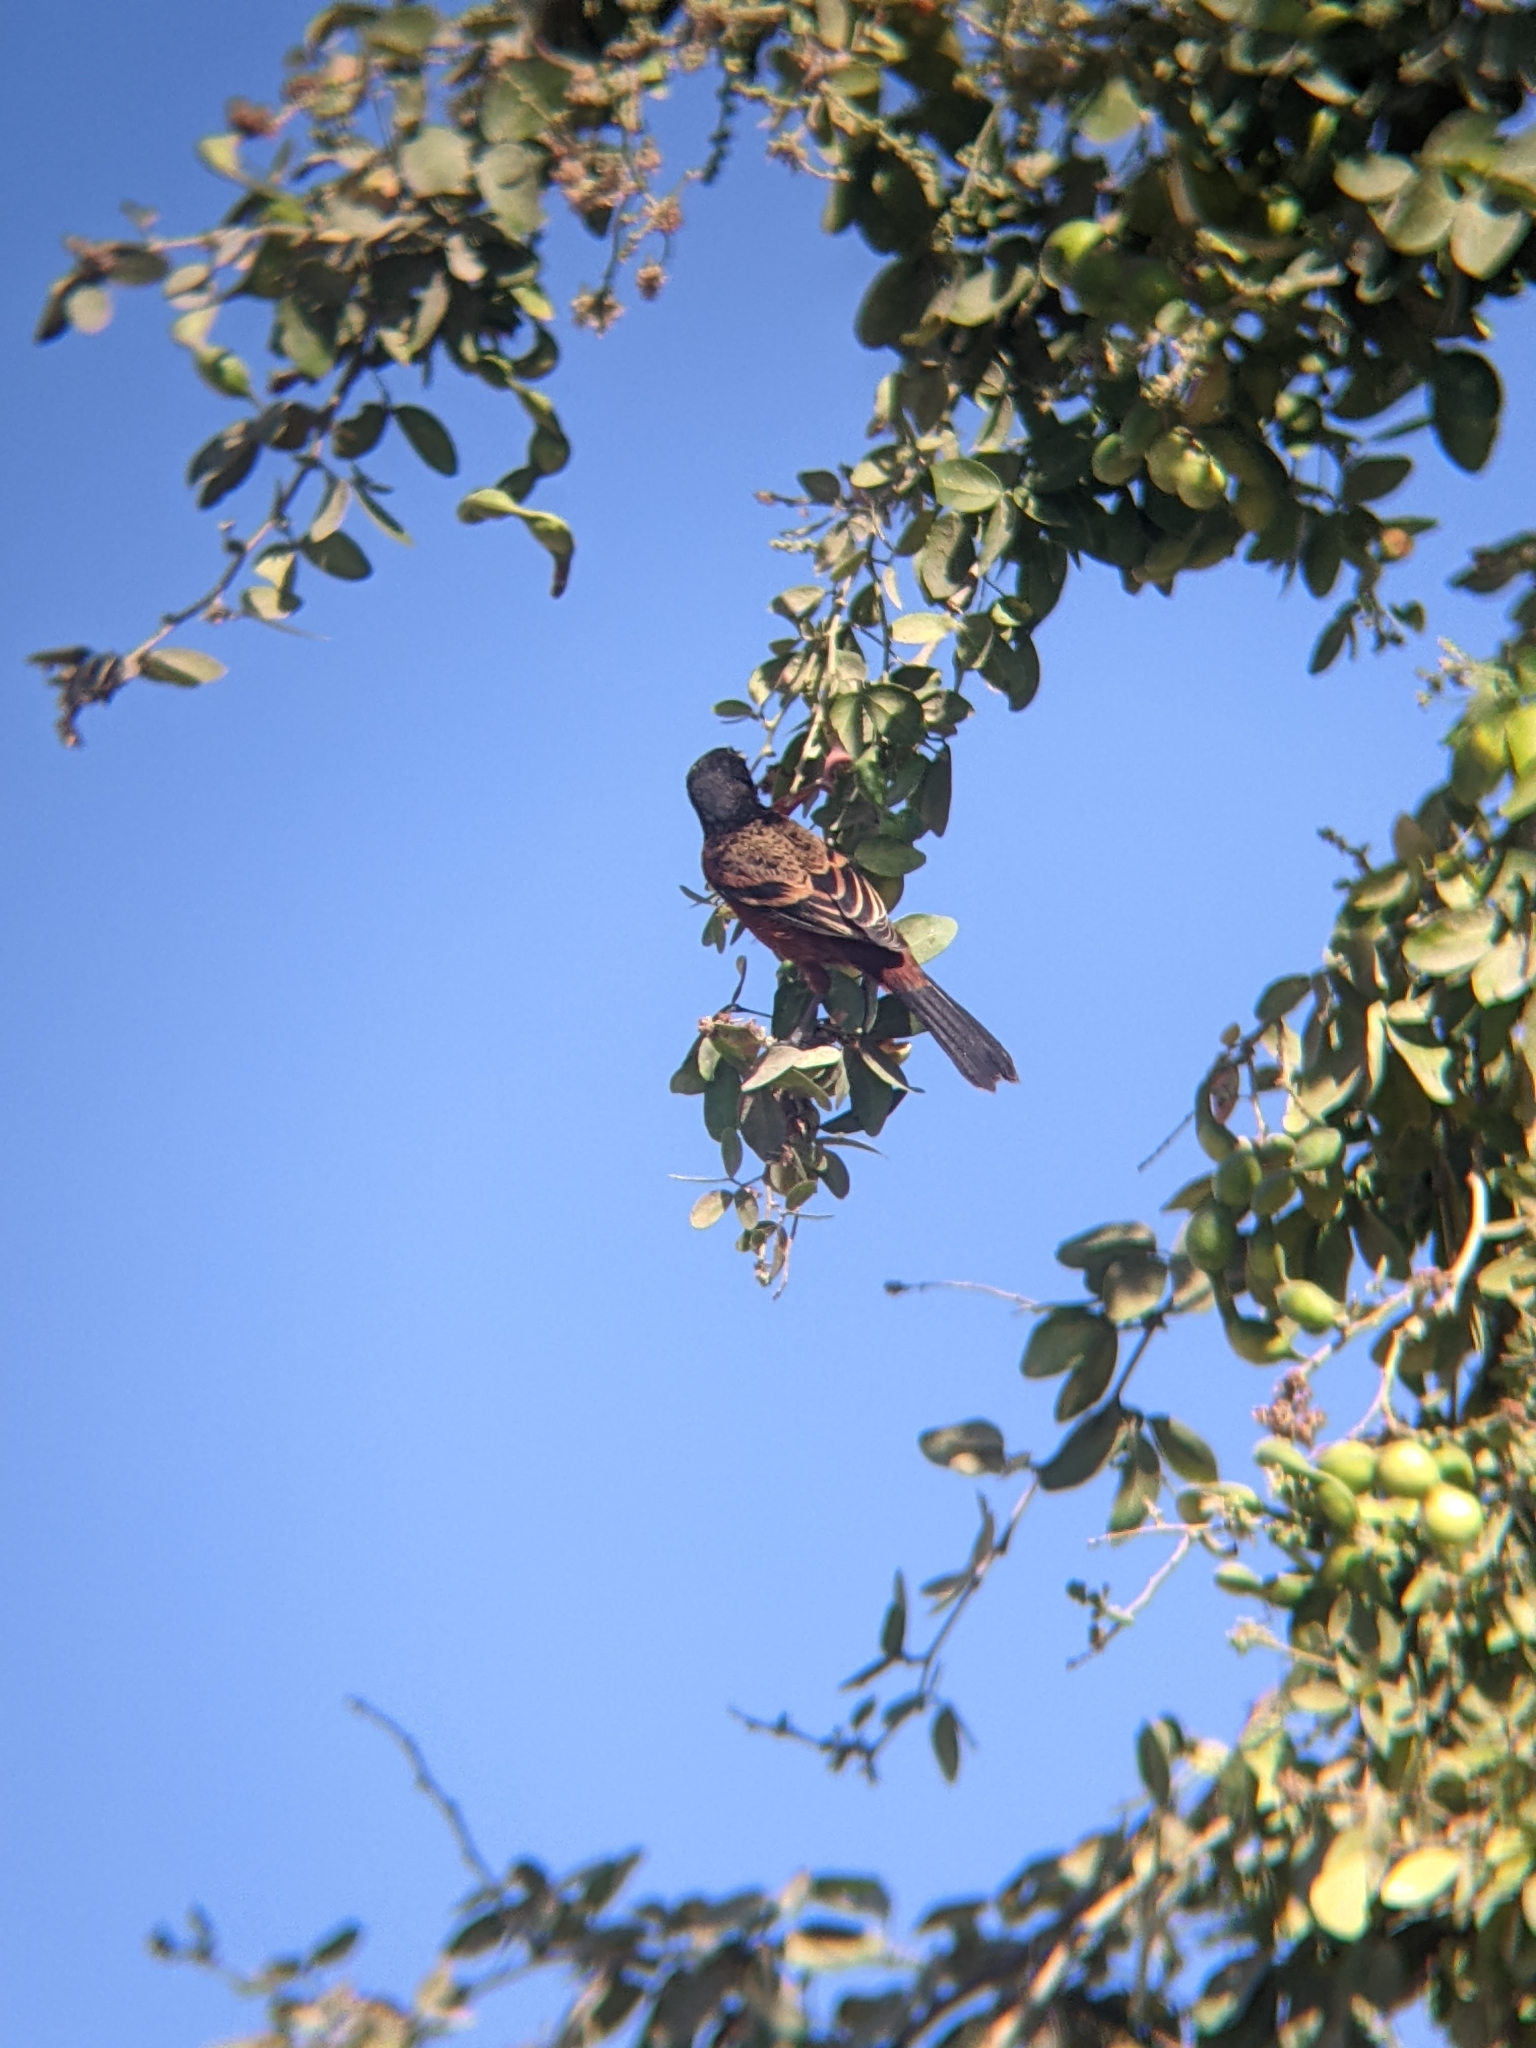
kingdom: Animalia
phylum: Chordata
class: Aves
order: Passeriformes
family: Icteridae
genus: Icterus
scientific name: Icterus spurius
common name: Orchard oriole
